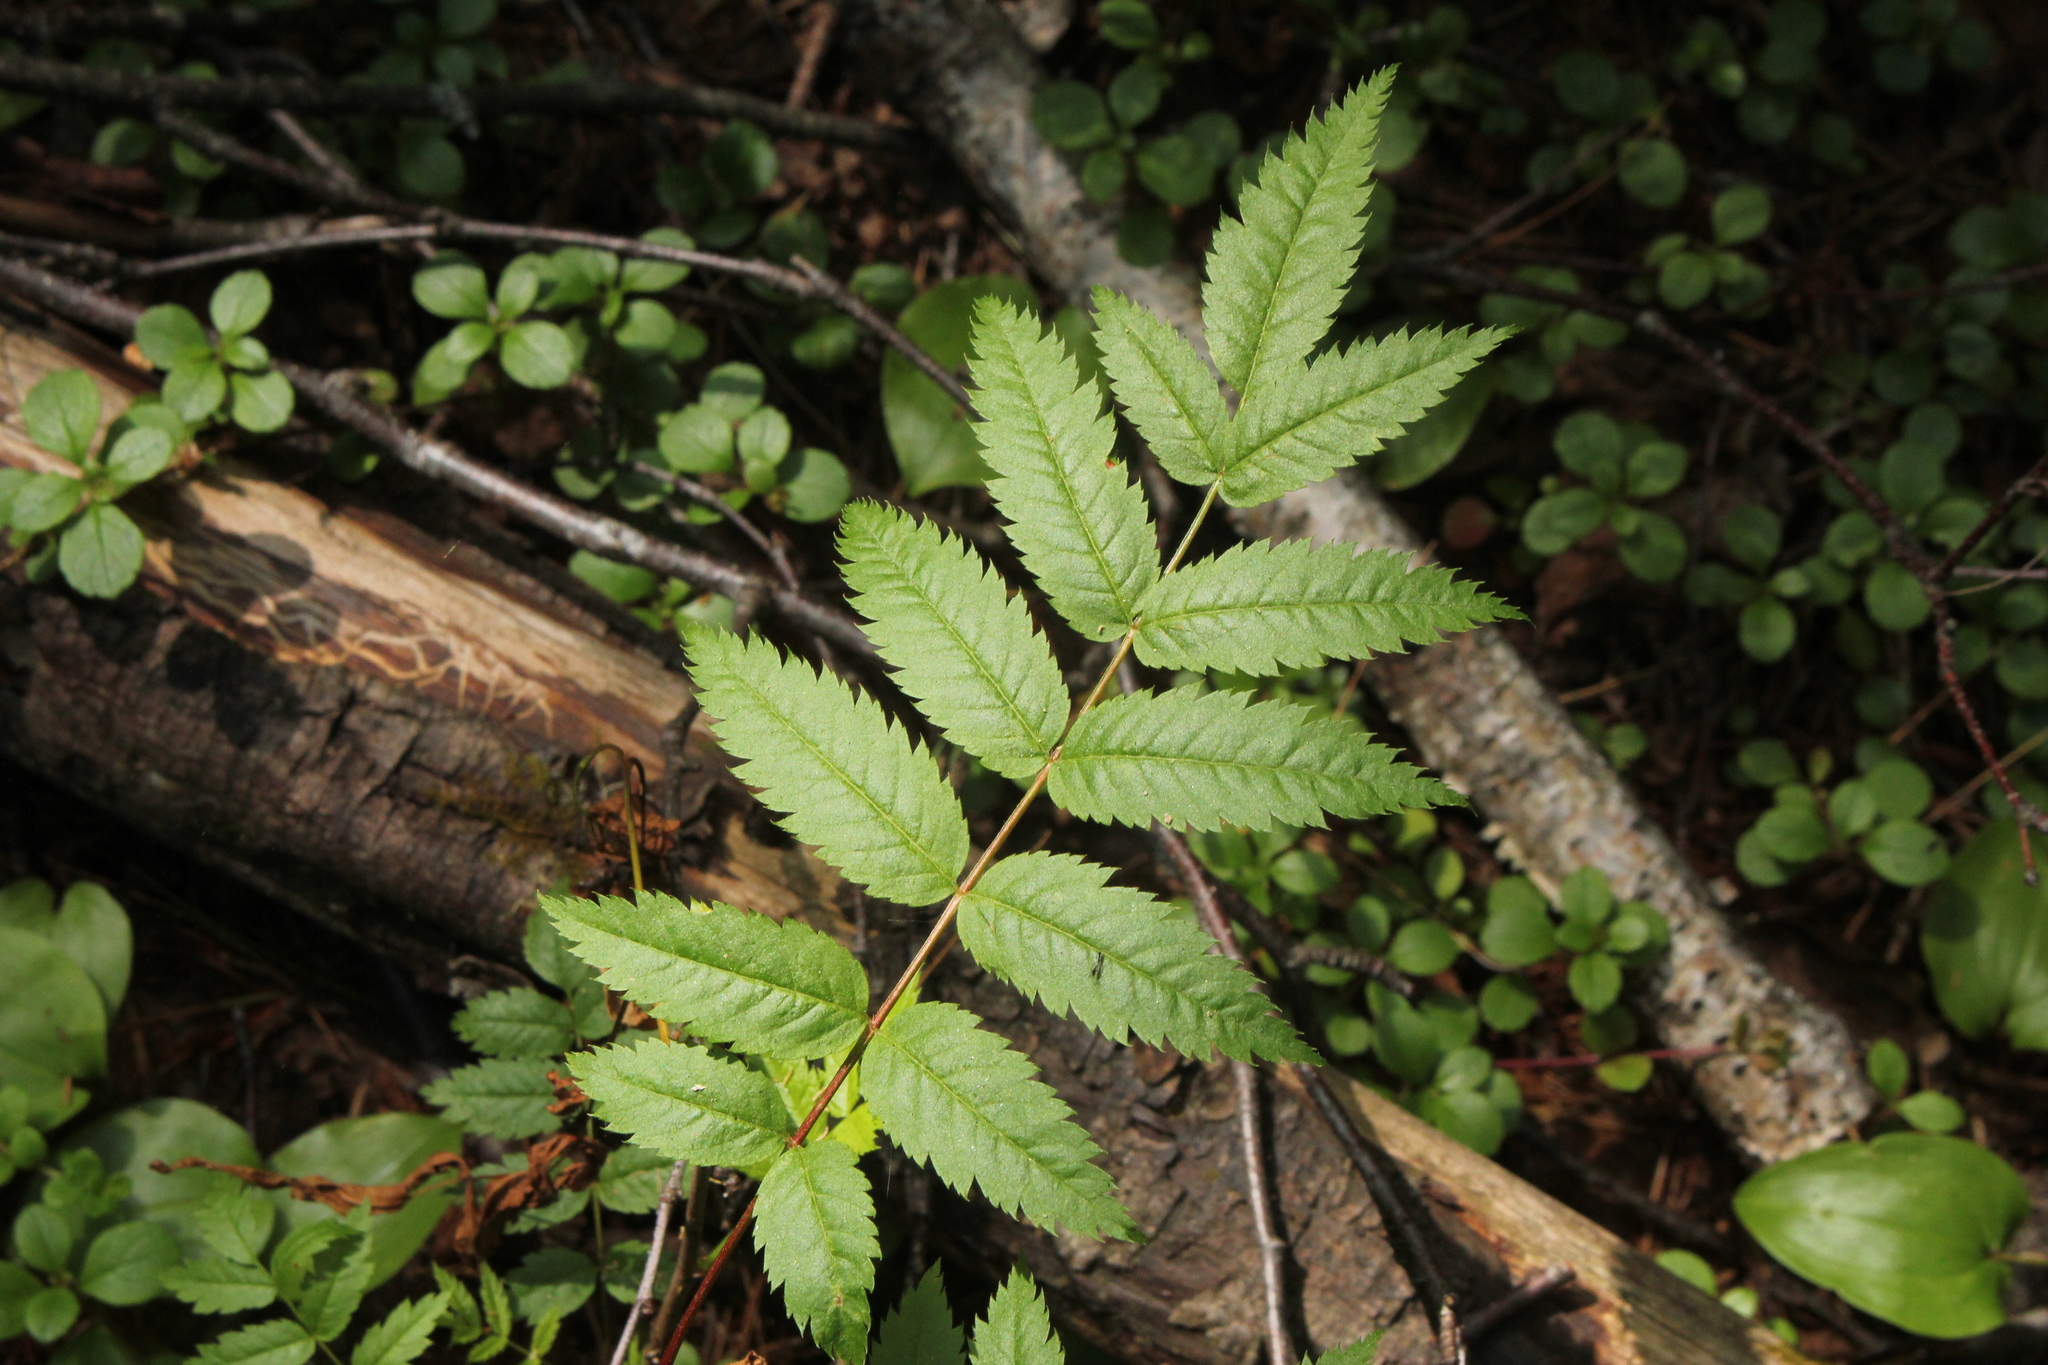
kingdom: Plantae
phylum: Tracheophyta
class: Magnoliopsida
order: Rosales
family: Rosaceae
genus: Sorbus
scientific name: Sorbus americana
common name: American mountain-ash
